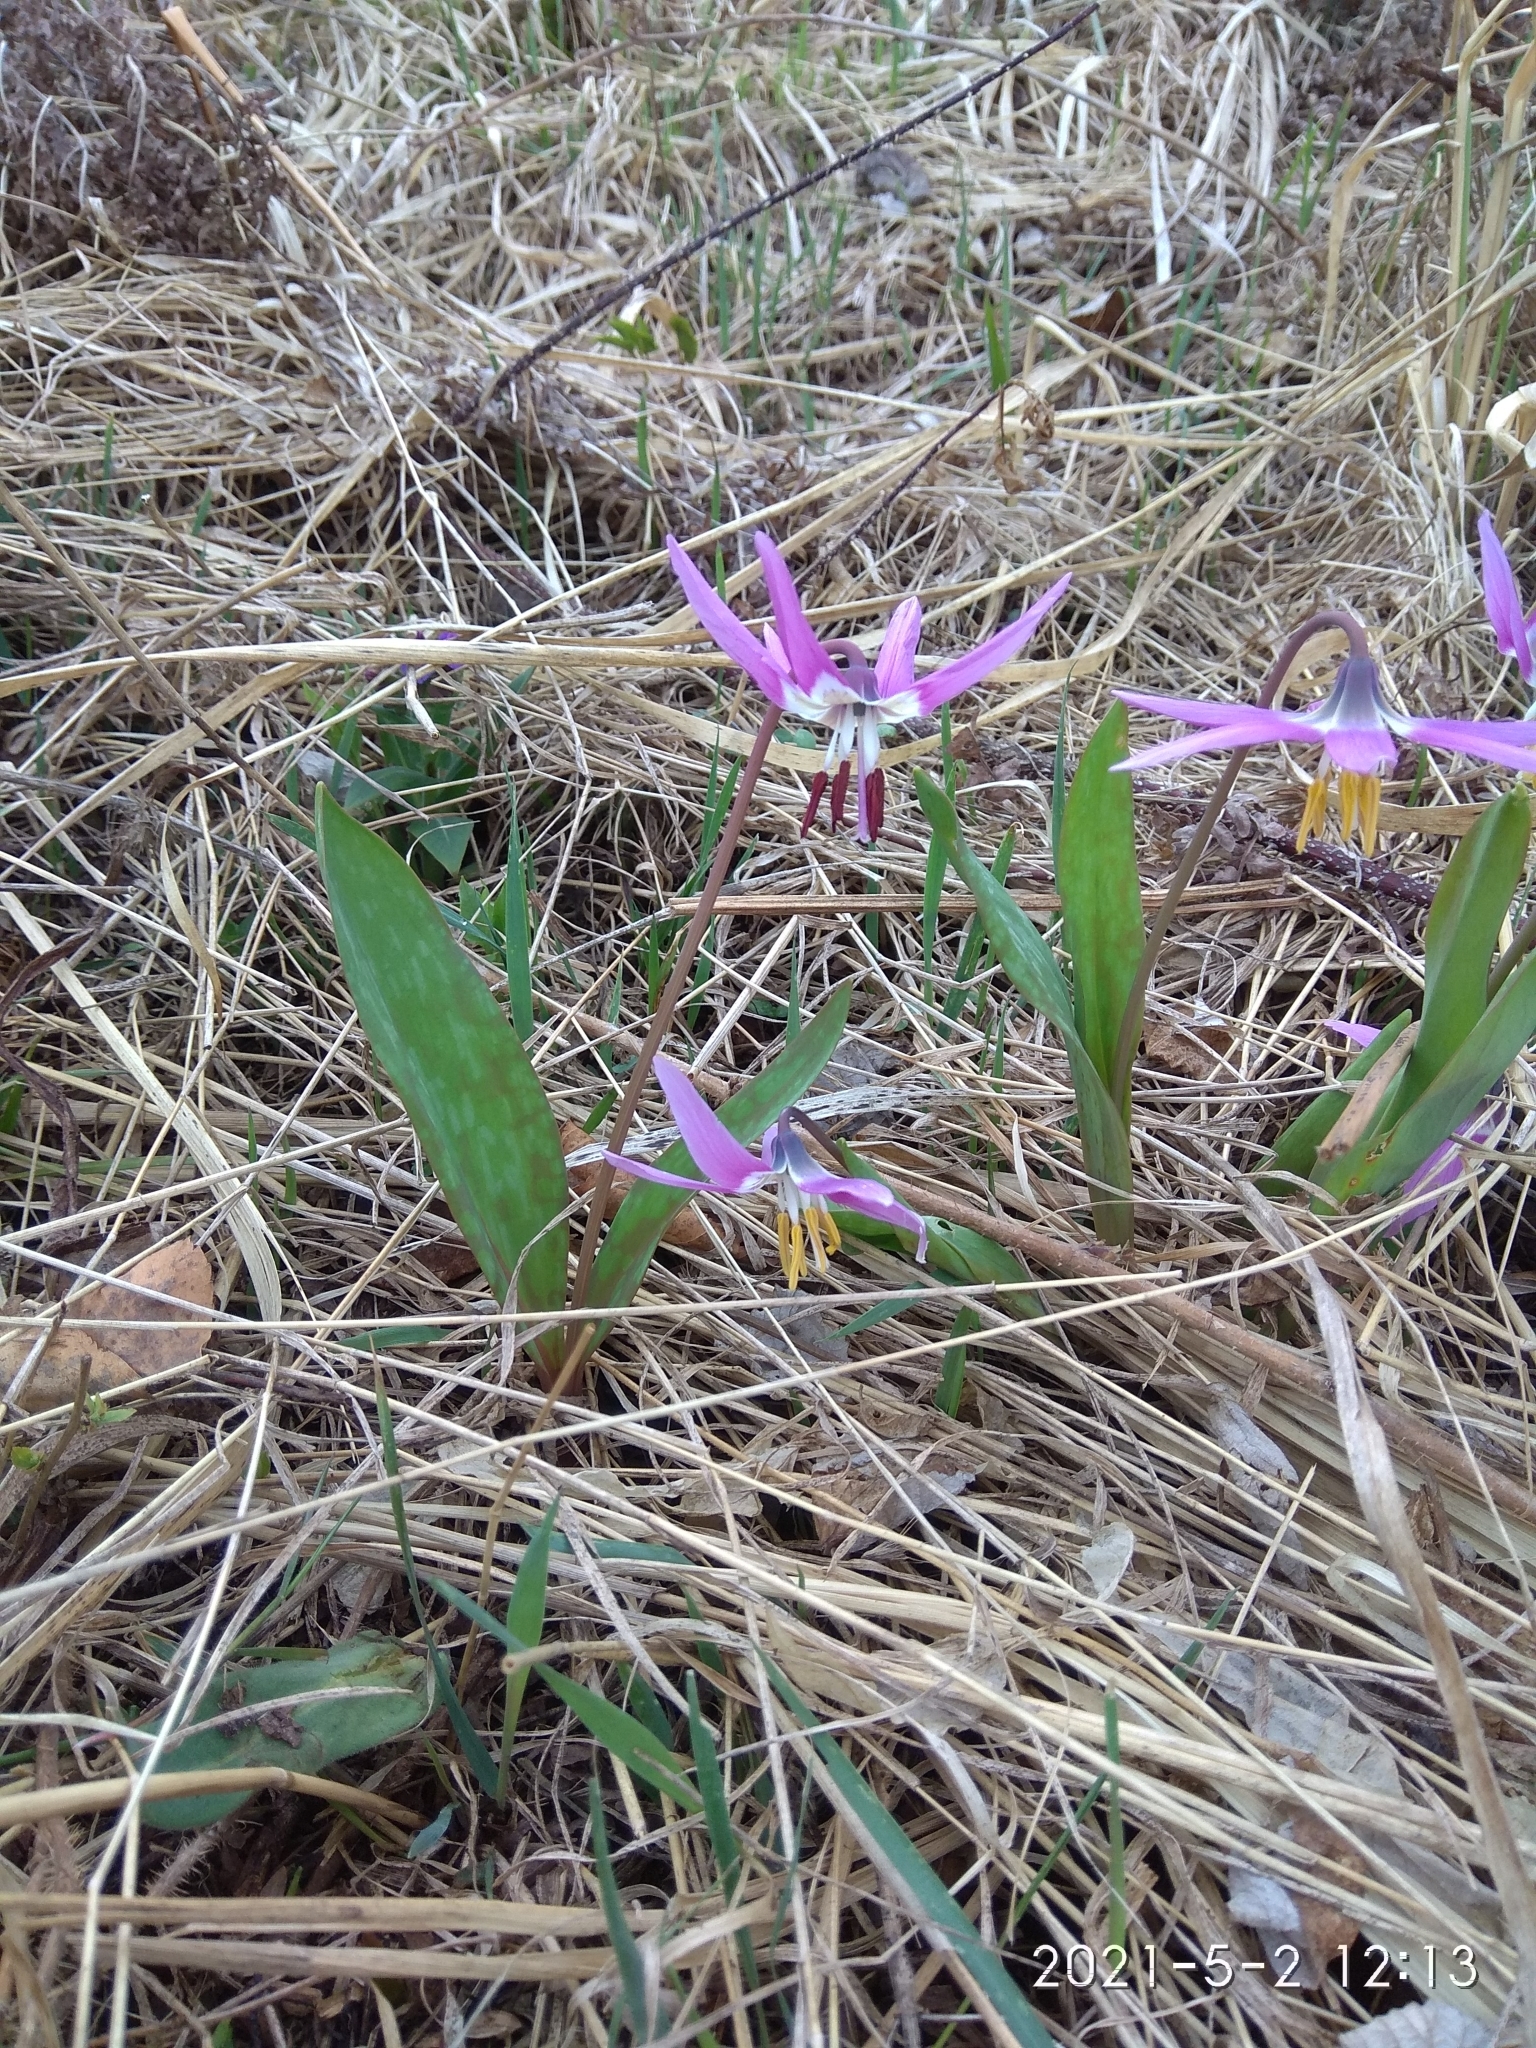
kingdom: Plantae
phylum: Tracheophyta
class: Liliopsida
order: Liliales
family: Liliaceae
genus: Erythronium
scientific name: Erythronium sibiricum
